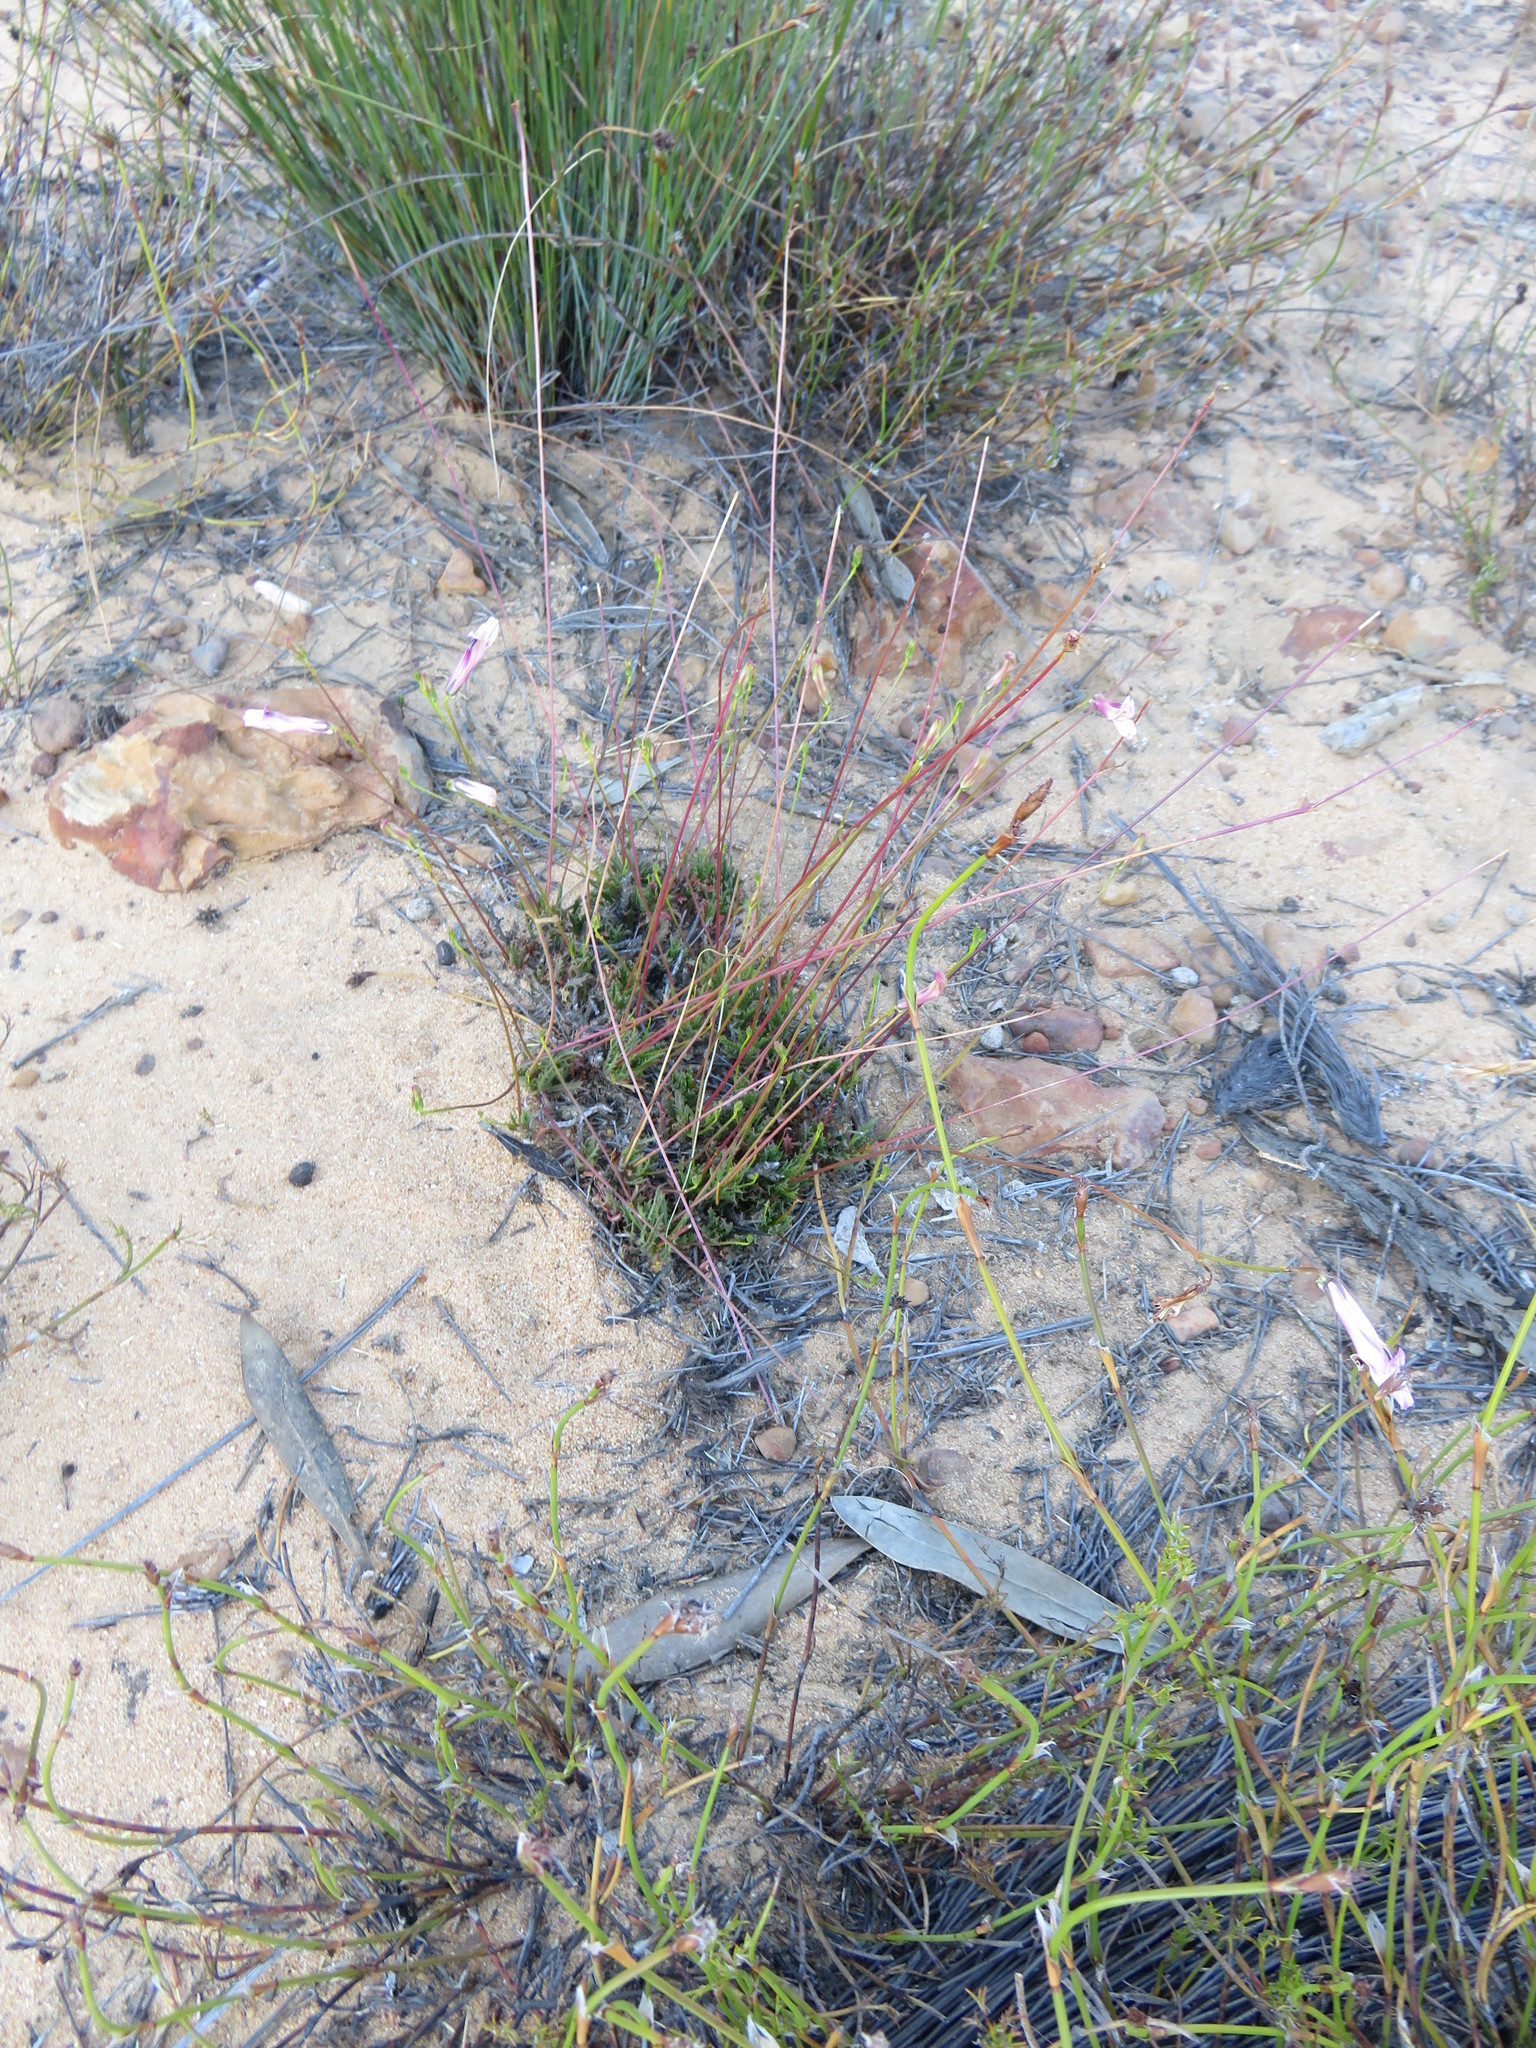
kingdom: Plantae
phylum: Tracheophyta
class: Magnoliopsida
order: Asterales
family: Campanulaceae
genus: Lobelia
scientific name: Lobelia coronopifolia
